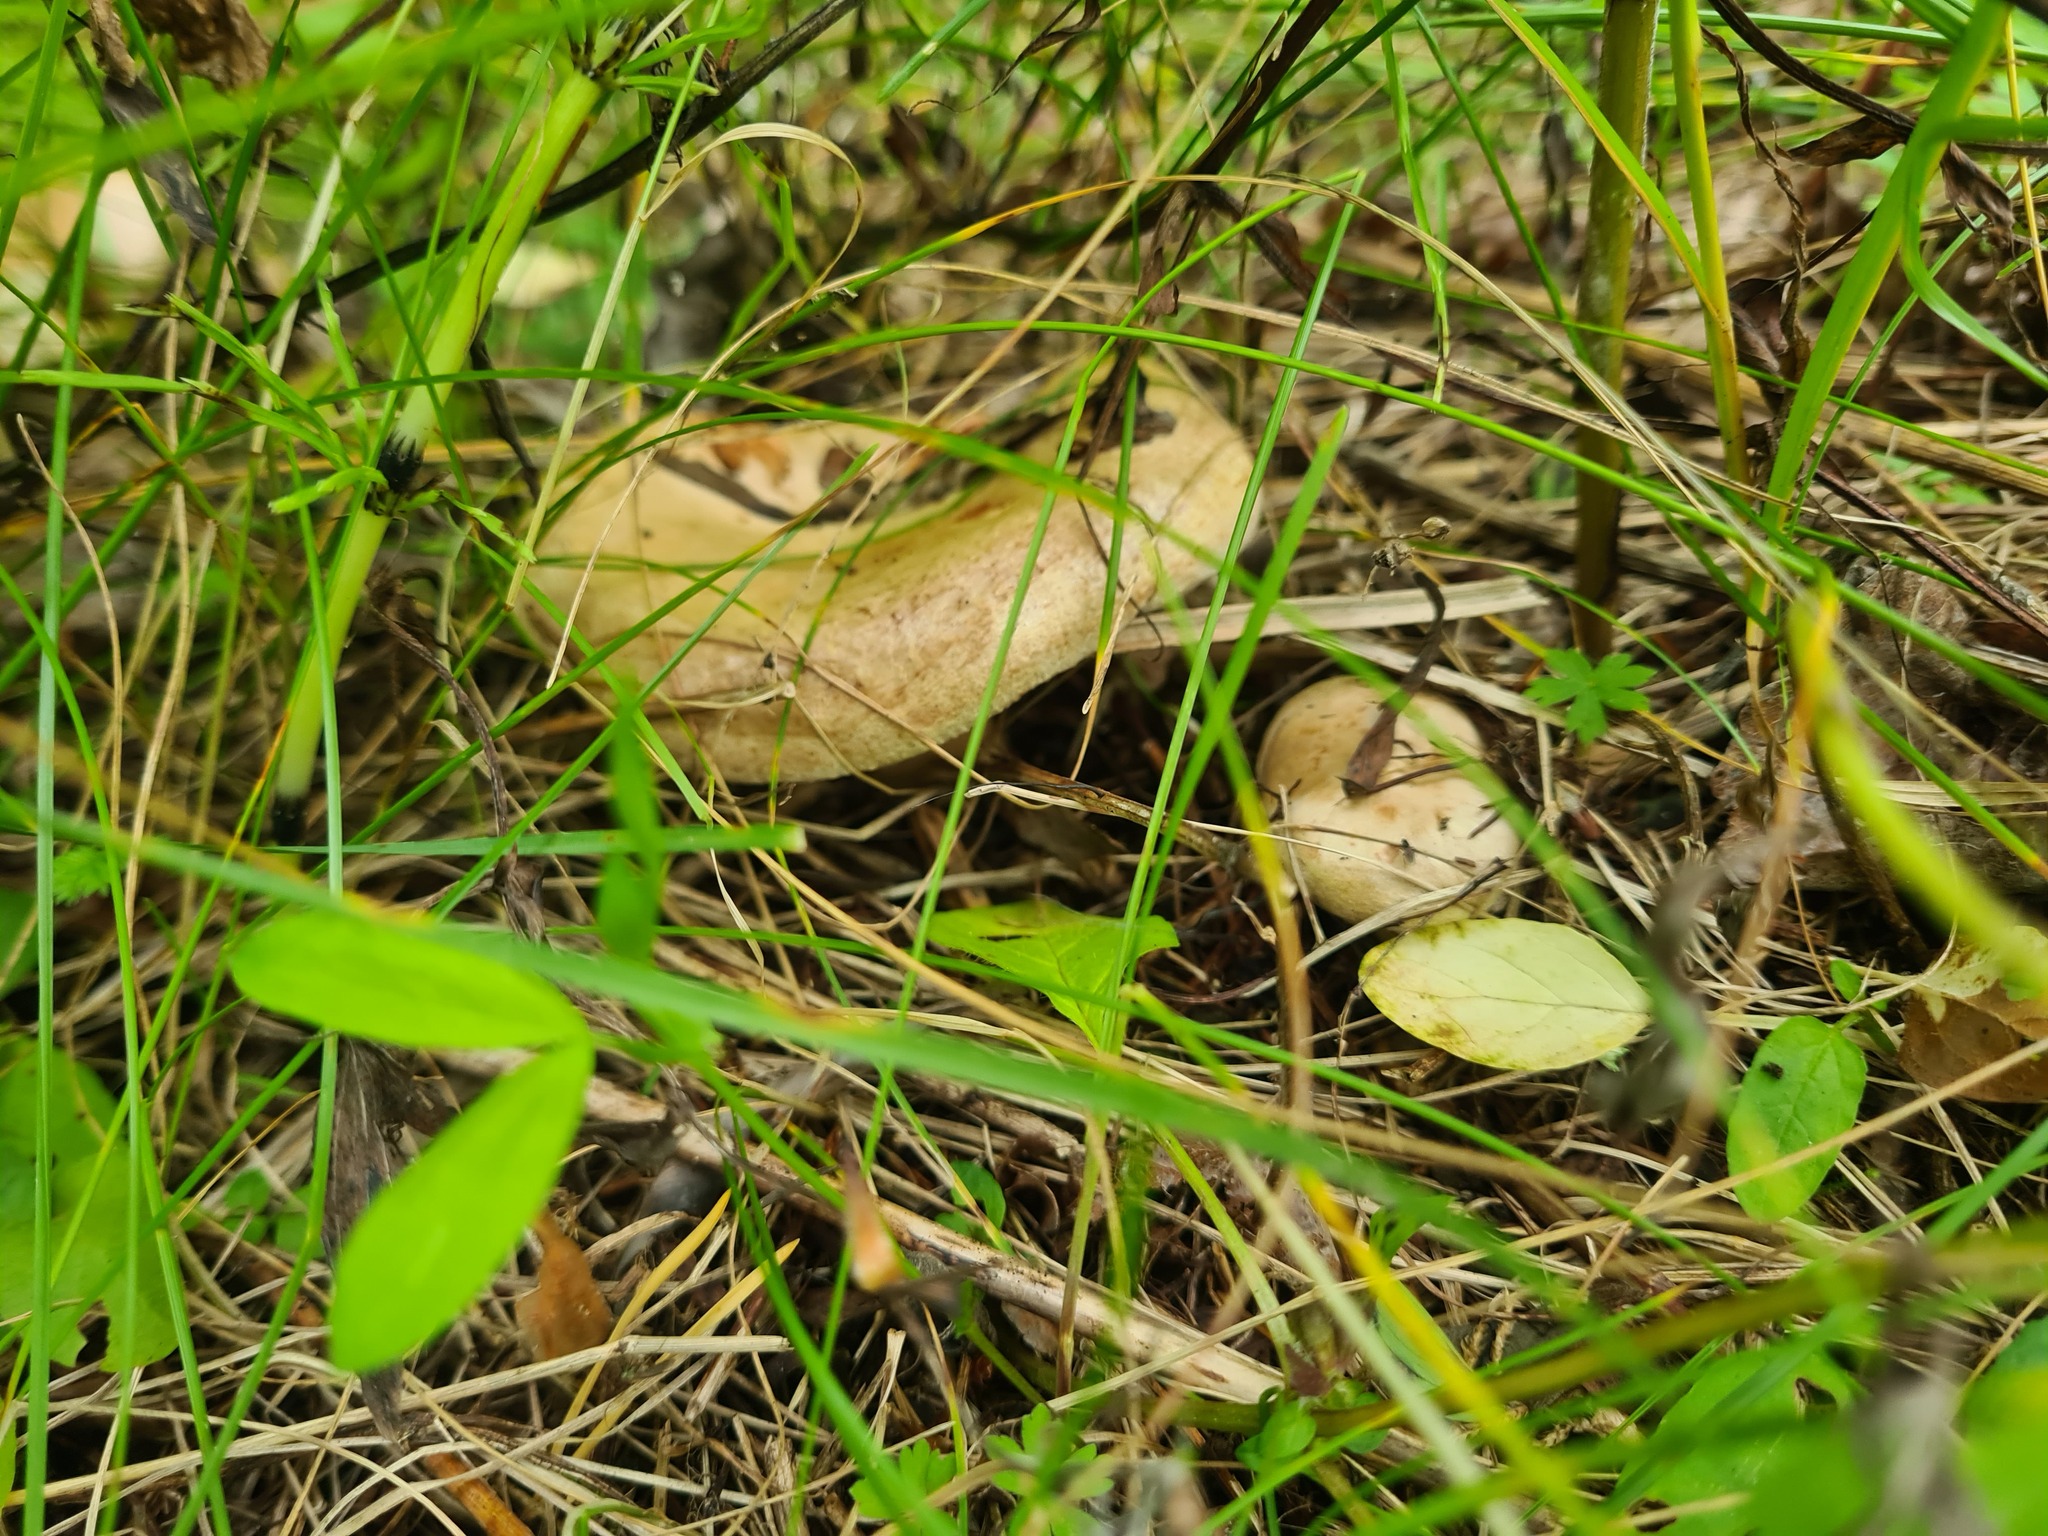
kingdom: Fungi
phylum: Basidiomycota
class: Agaricomycetes
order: Boletales
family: Paxillaceae
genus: Paxillus
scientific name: Paxillus involutus
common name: Brown roll rim
